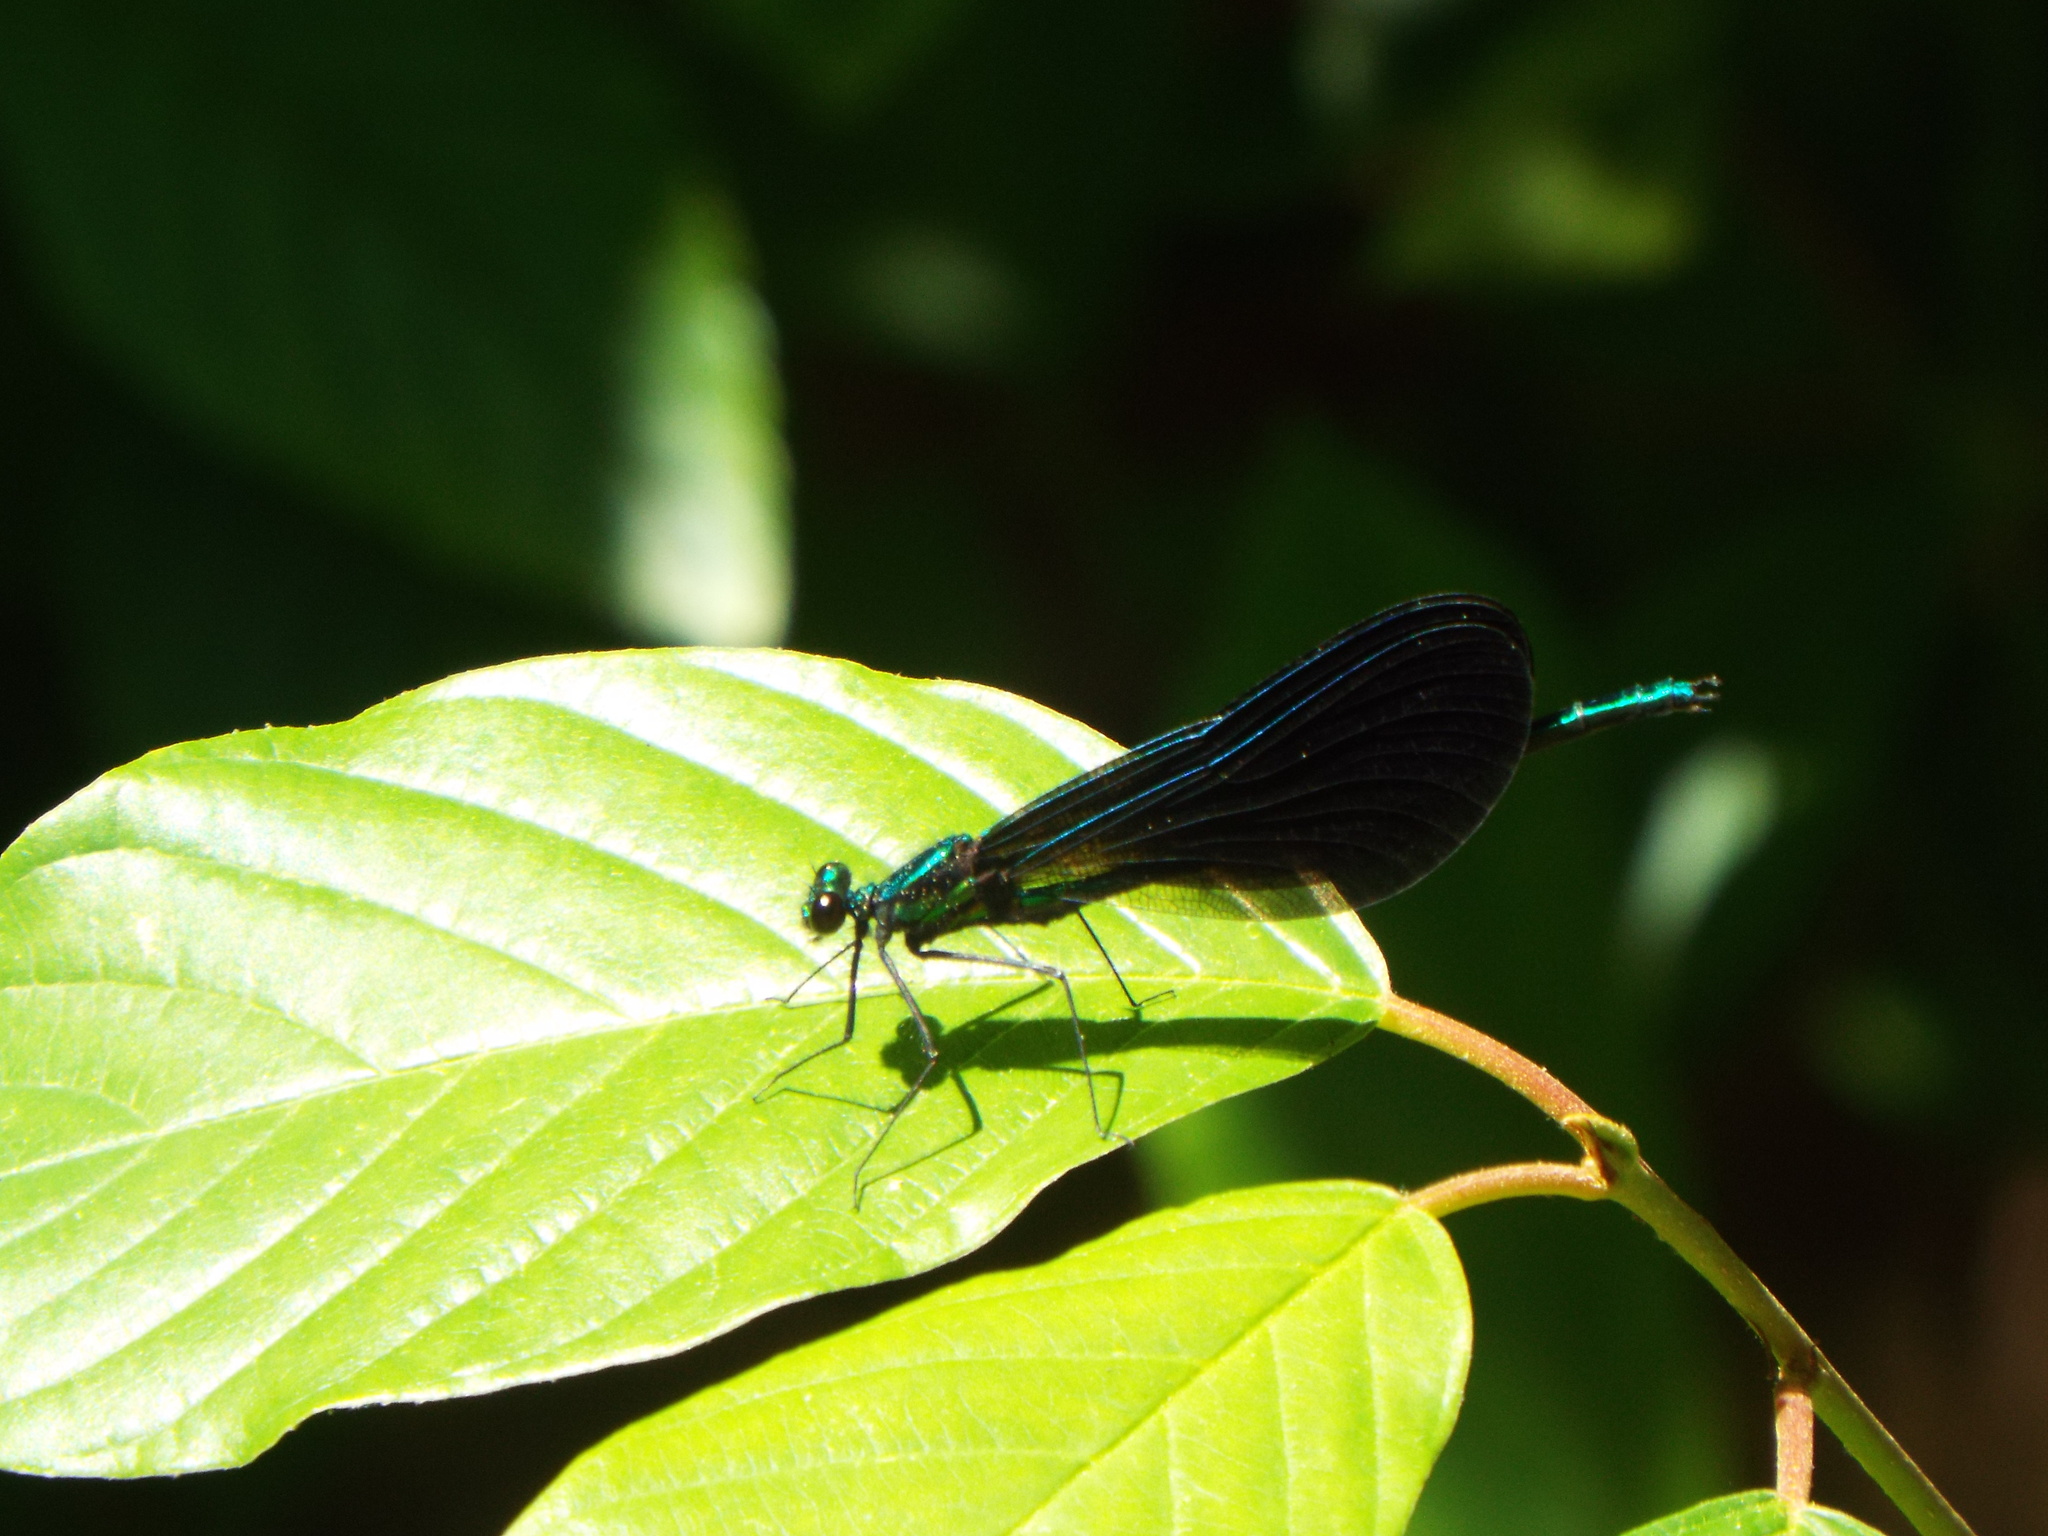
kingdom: Animalia
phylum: Arthropoda
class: Insecta
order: Odonata
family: Calopterygidae
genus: Calopteryx
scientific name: Calopteryx maculata
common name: Ebony jewelwing
